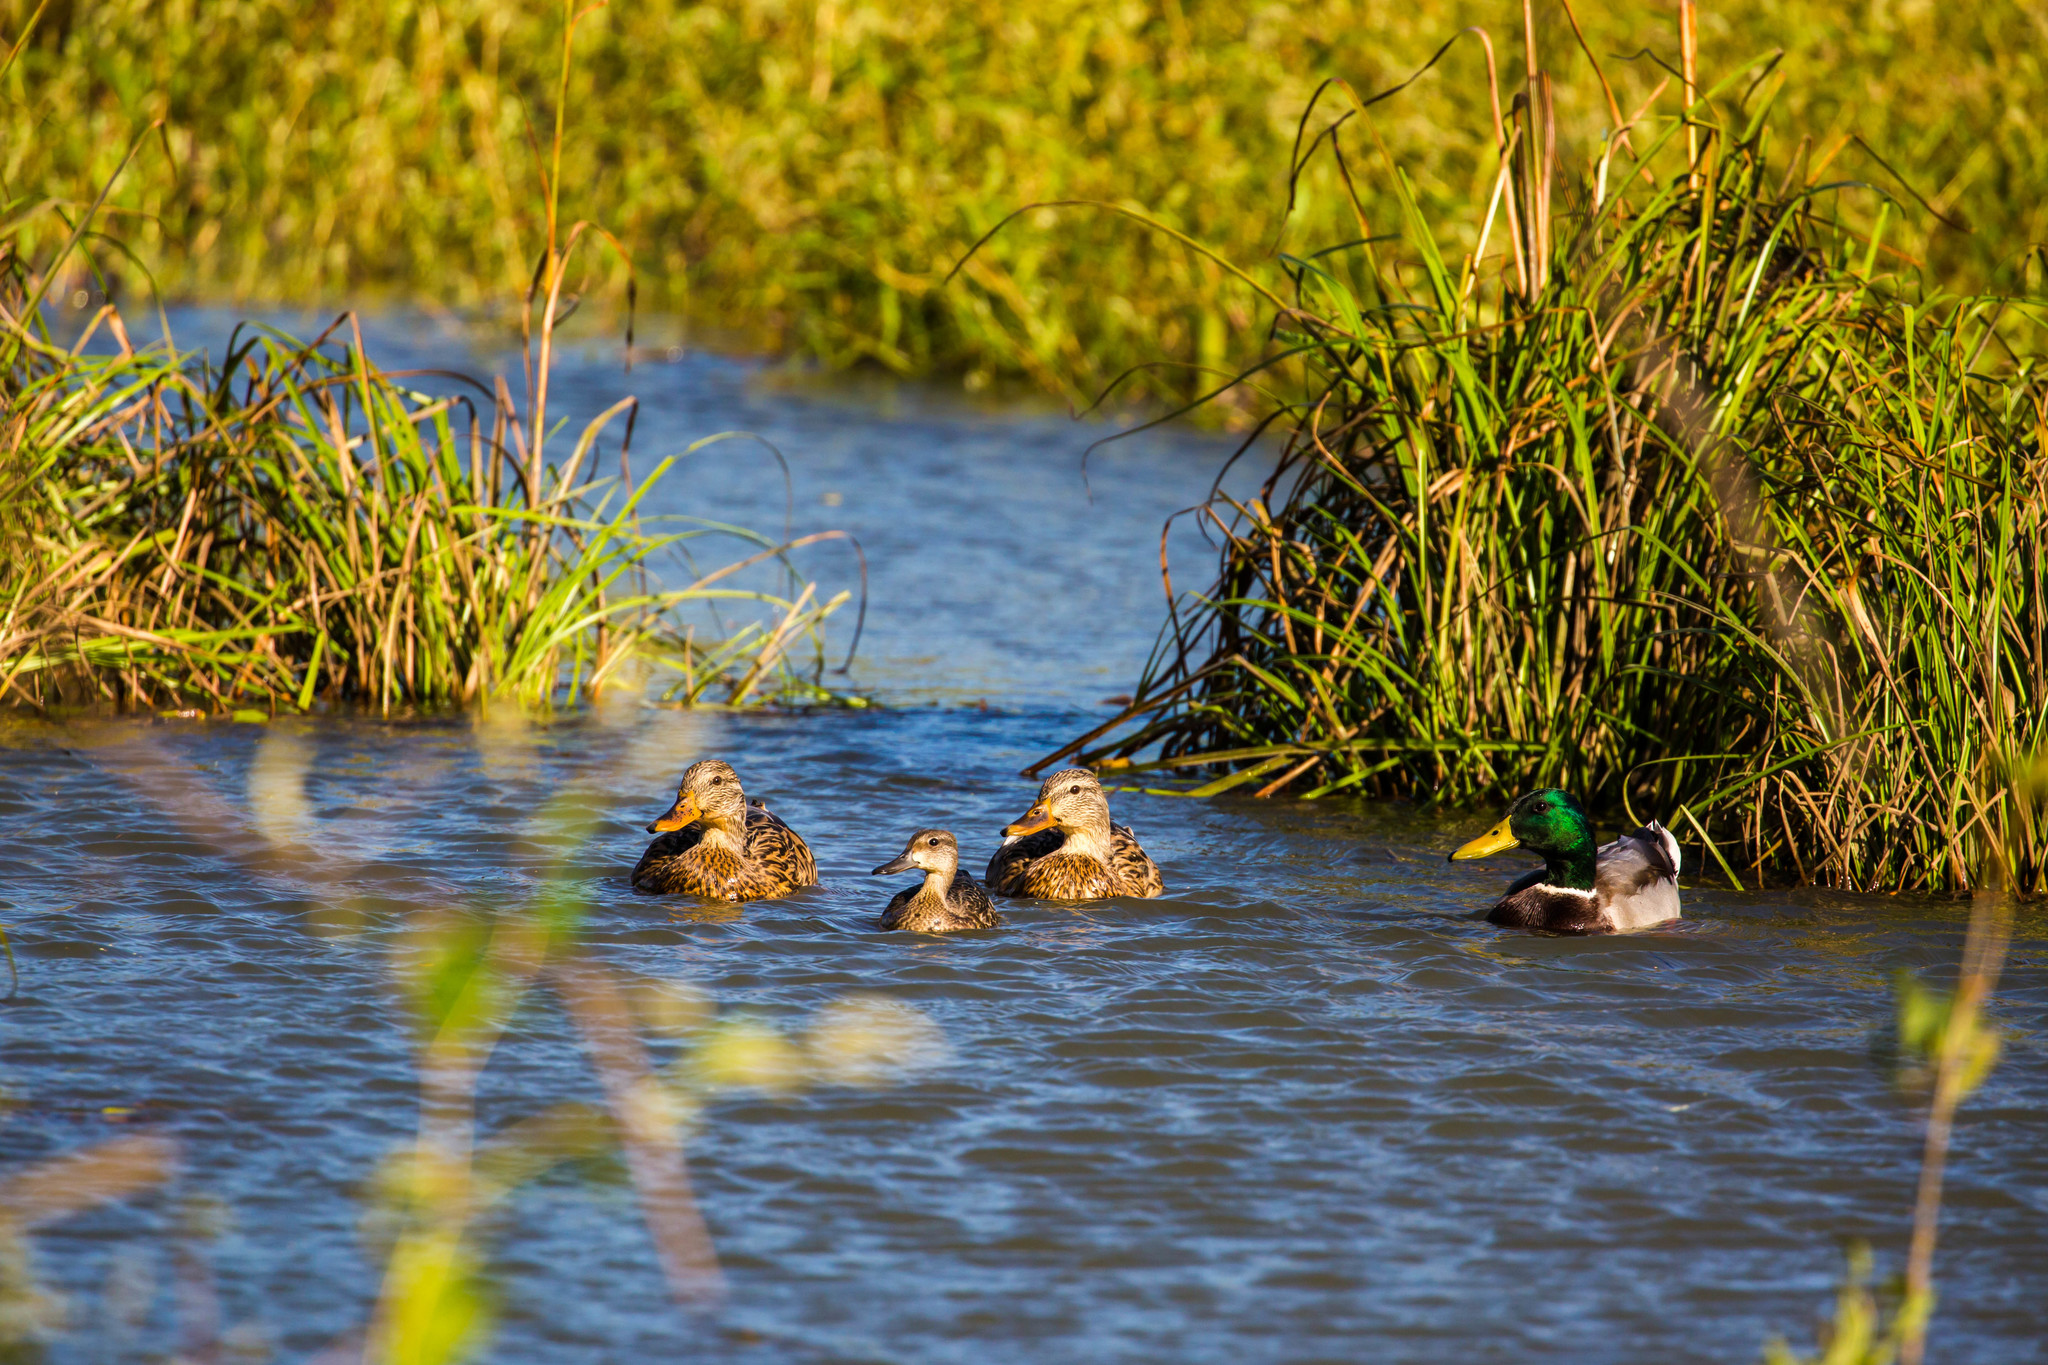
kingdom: Animalia
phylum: Chordata
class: Aves
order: Anseriformes
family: Anatidae
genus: Anas
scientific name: Anas platyrhynchos
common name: Mallard
